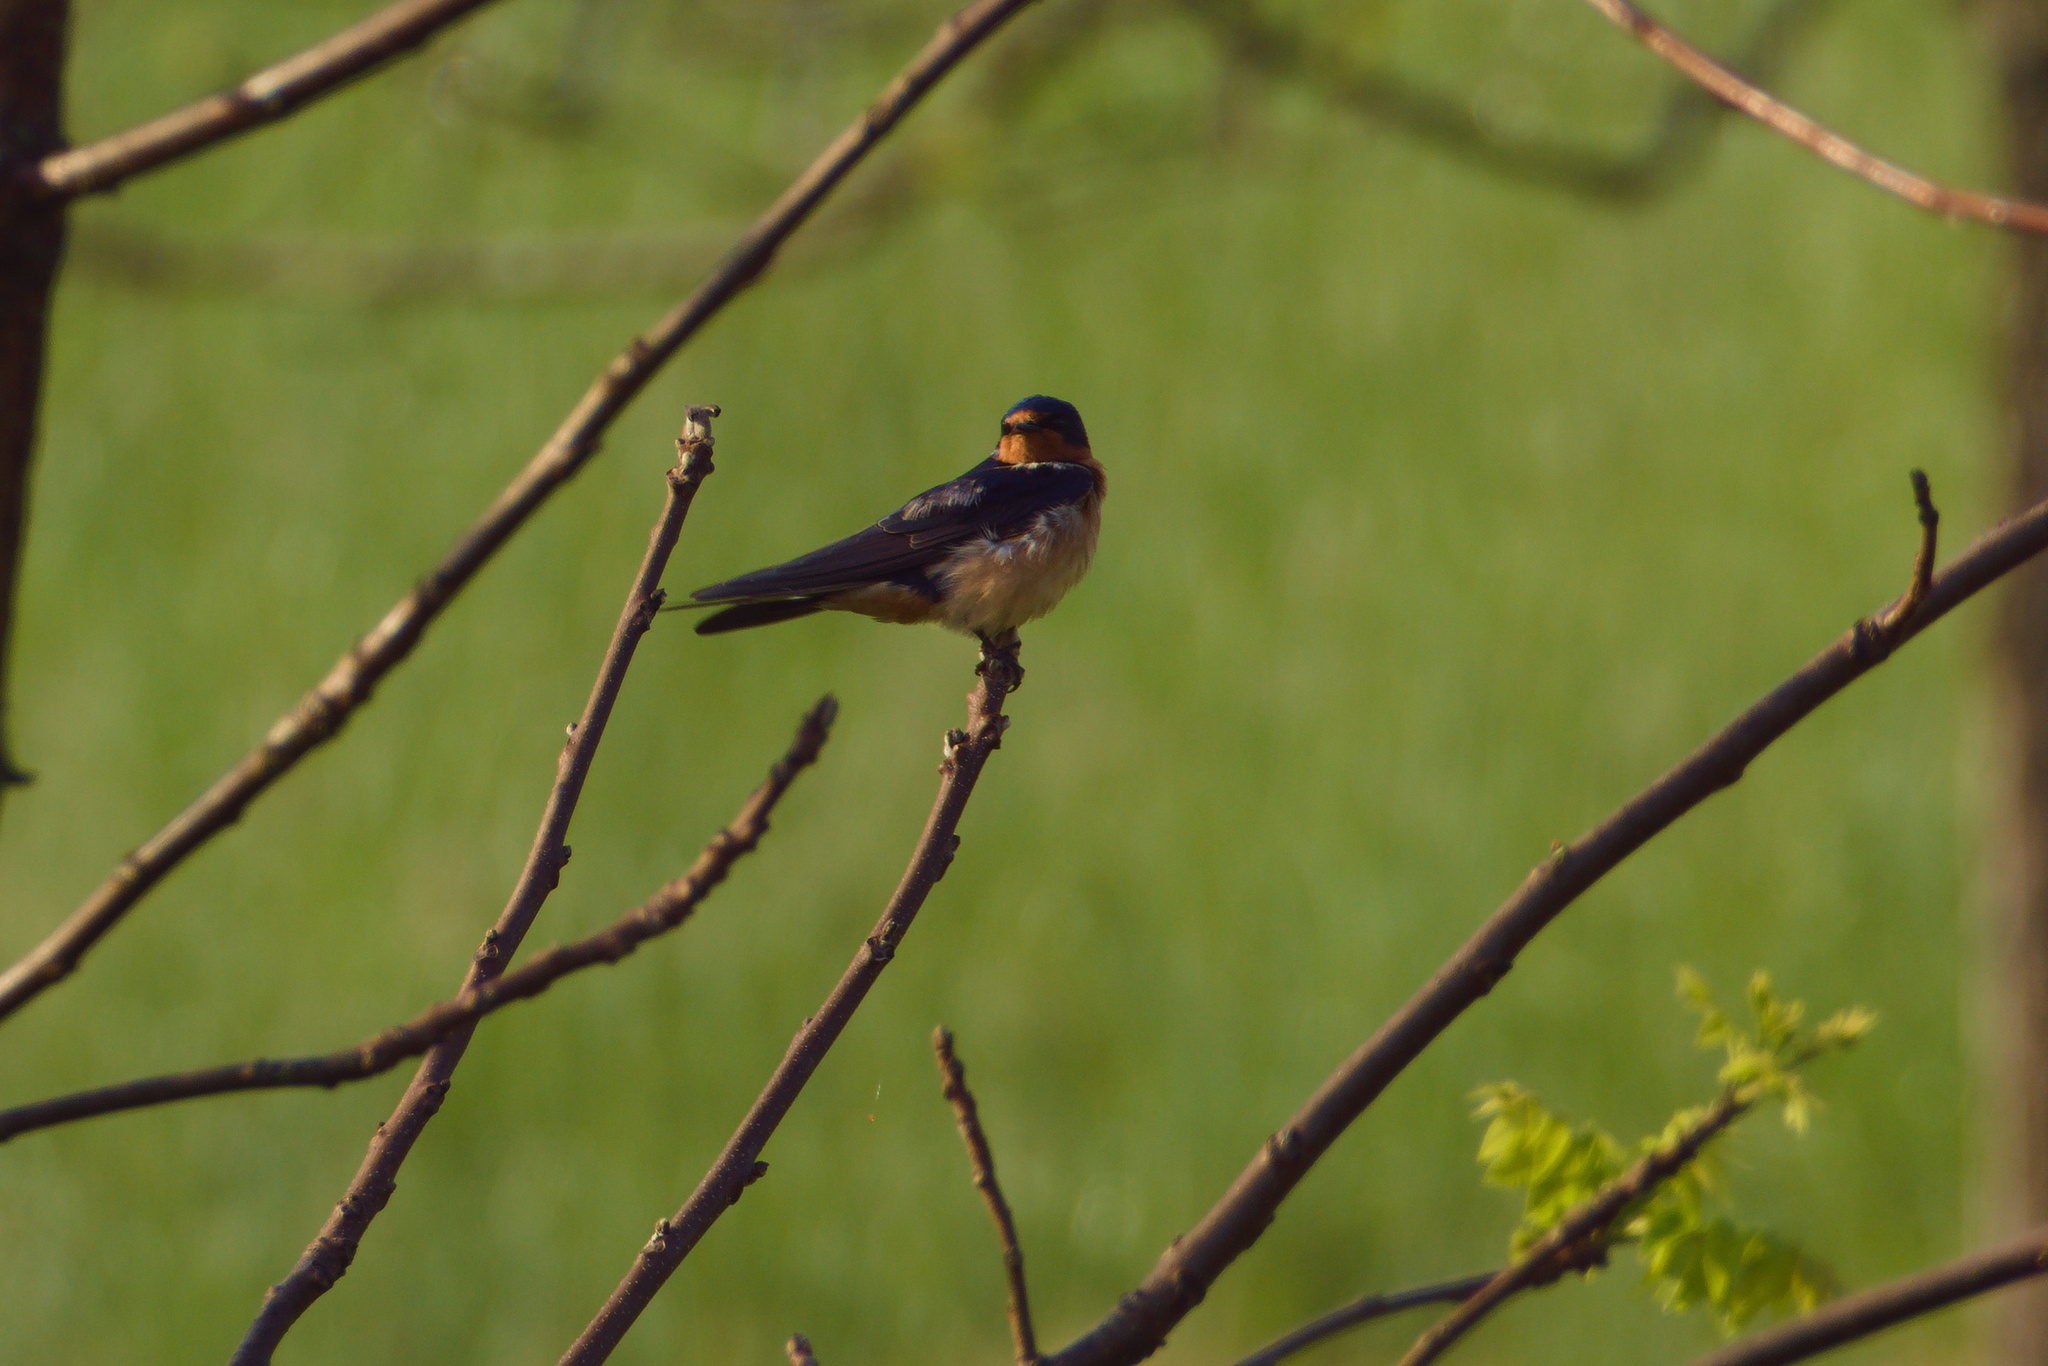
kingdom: Animalia
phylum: Chordata
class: Aves
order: Passeriformes
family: Hirundinidae
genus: Hirundo
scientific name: Hirundo rustica
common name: Barn swallow
